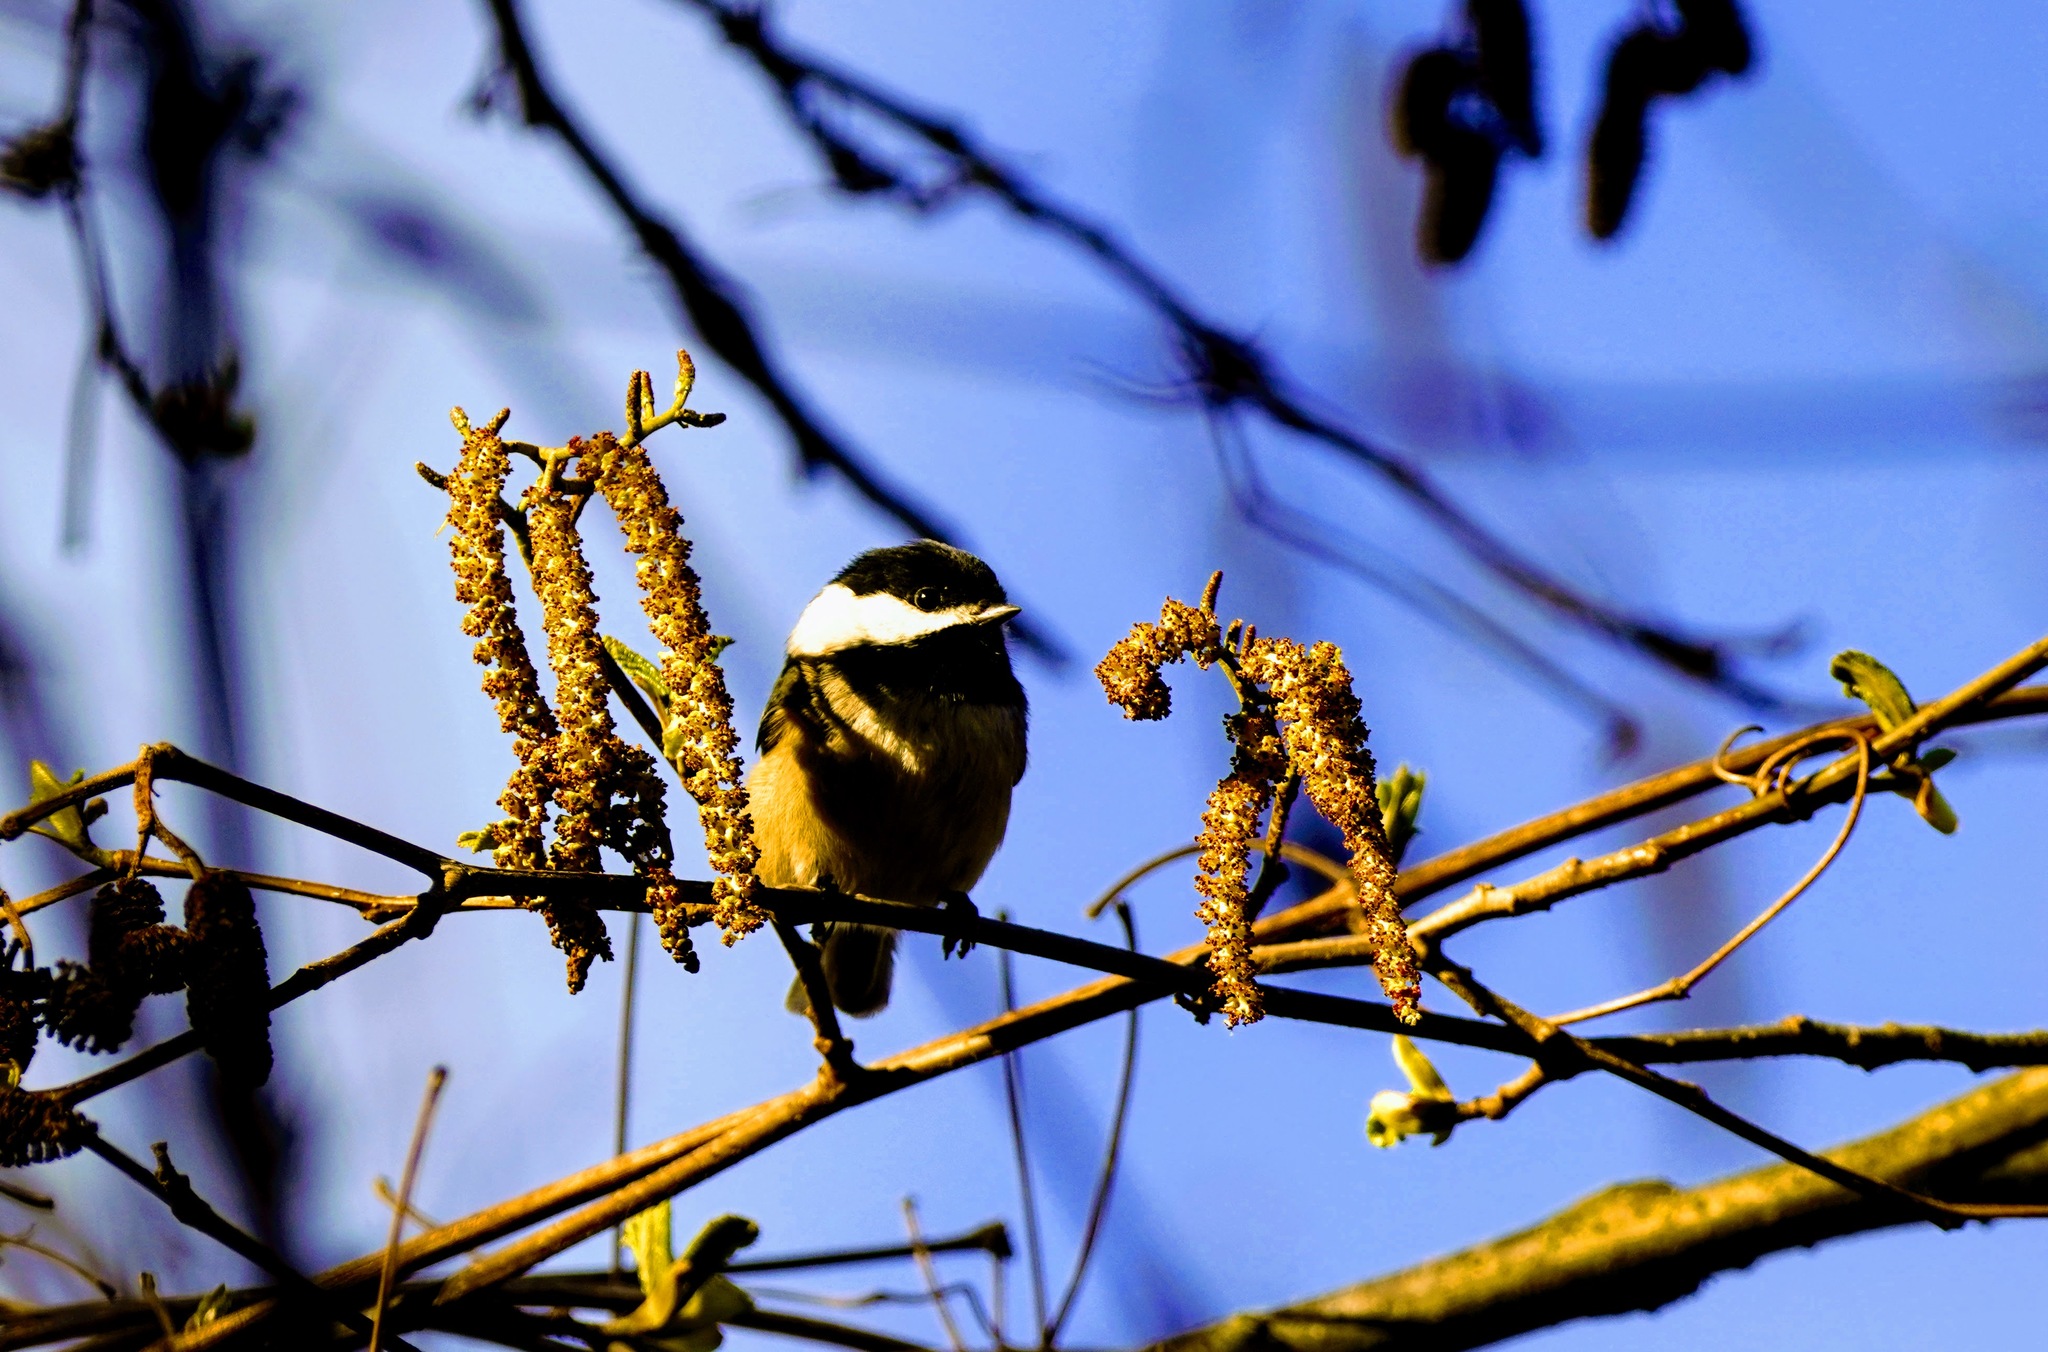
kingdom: Animalia
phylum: Chordata
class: Aves
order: Passeriformes
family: Paridae
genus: Poecile
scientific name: Poecile atricapillus
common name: Black-capped chickadee
